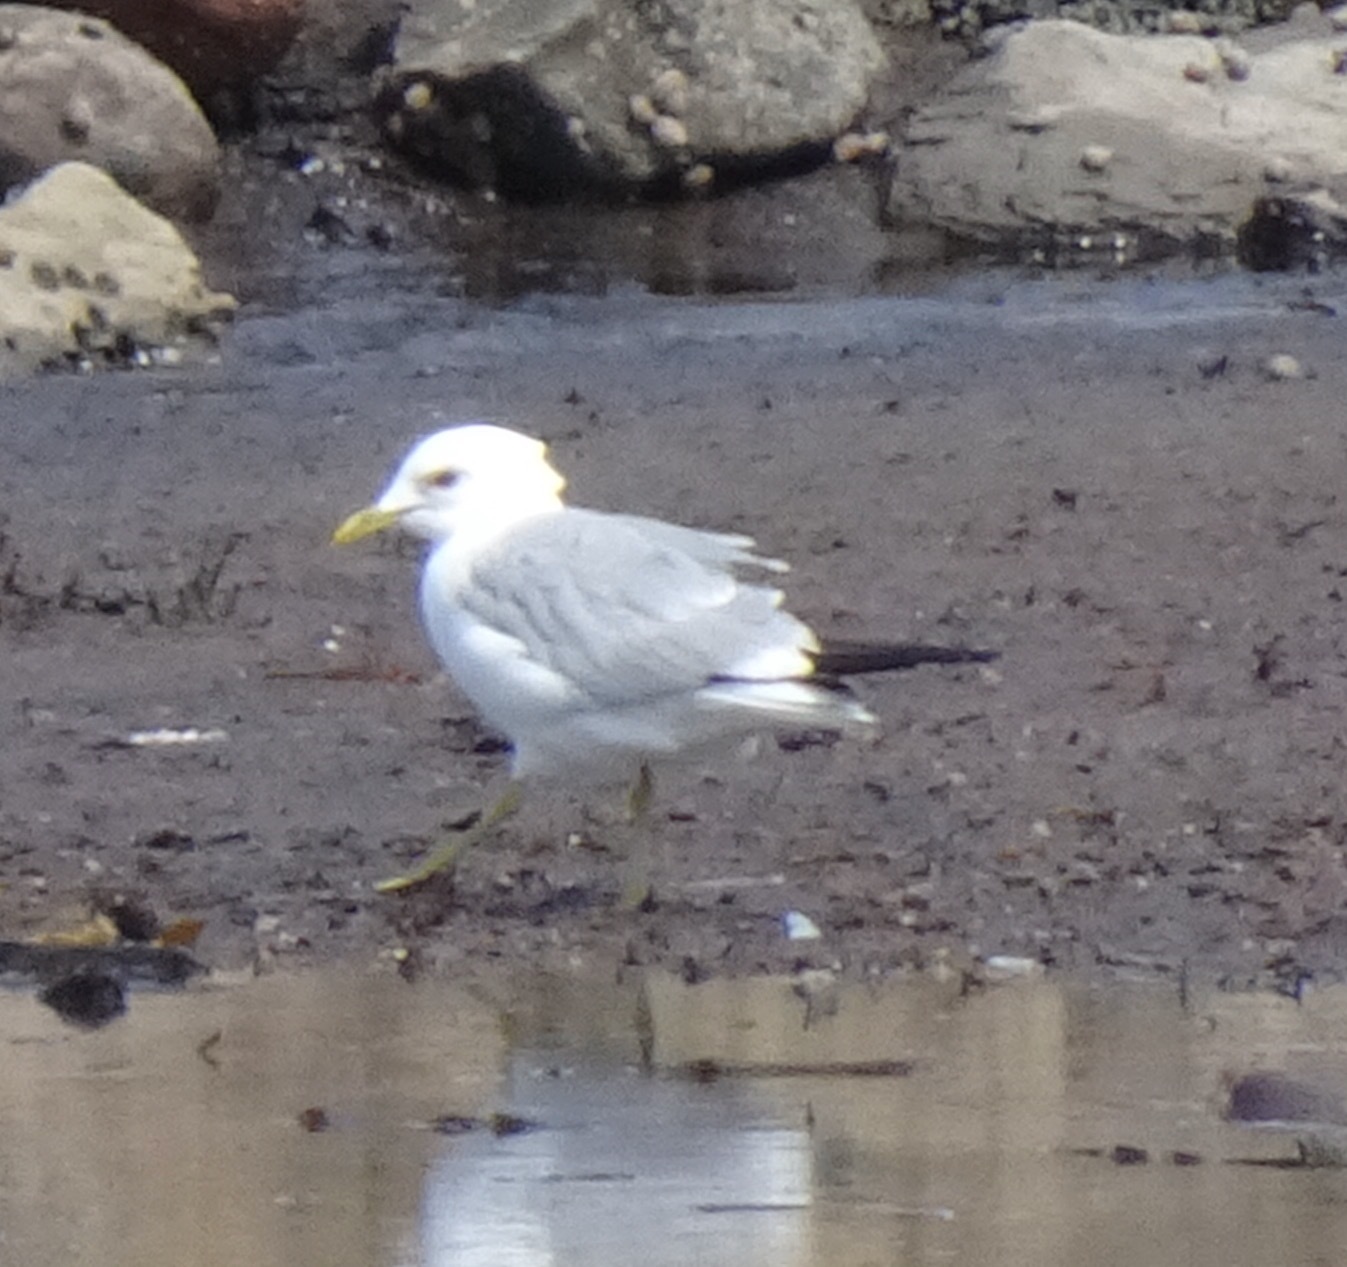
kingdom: Animalia
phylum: Chordata
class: Aves
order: Charadriiformes
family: Laridae
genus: Larus
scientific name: Larus canus
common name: Mew gull
